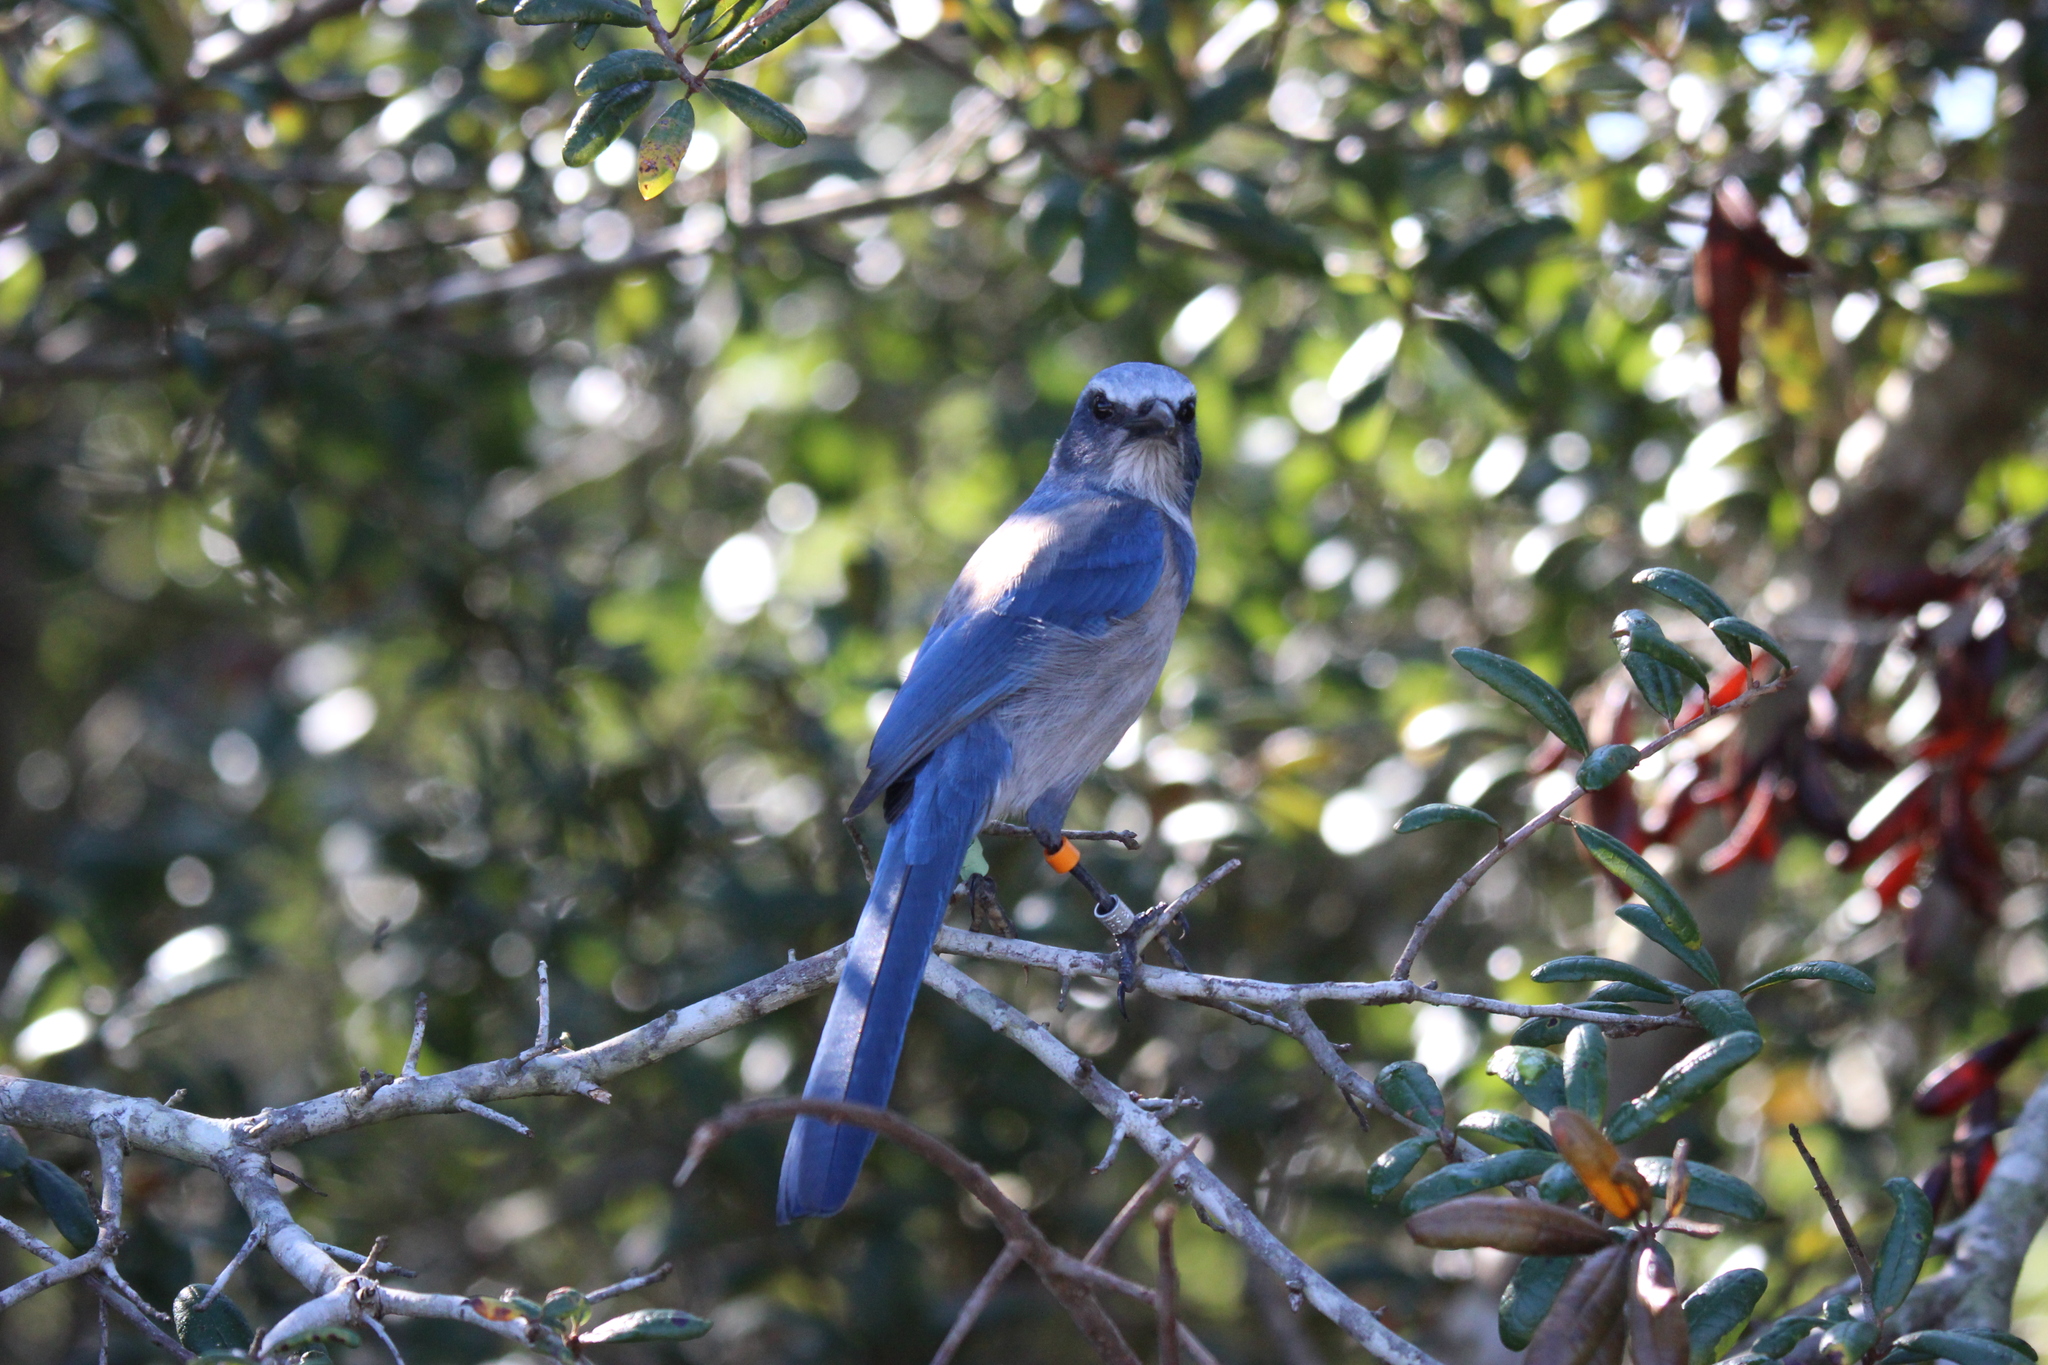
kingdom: Animalia
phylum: Chordata
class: Aves
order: Passeriformes
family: Corvidae
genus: Aphelocoma
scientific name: Aphelocoma coerulescens
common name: Florida scrub jay
